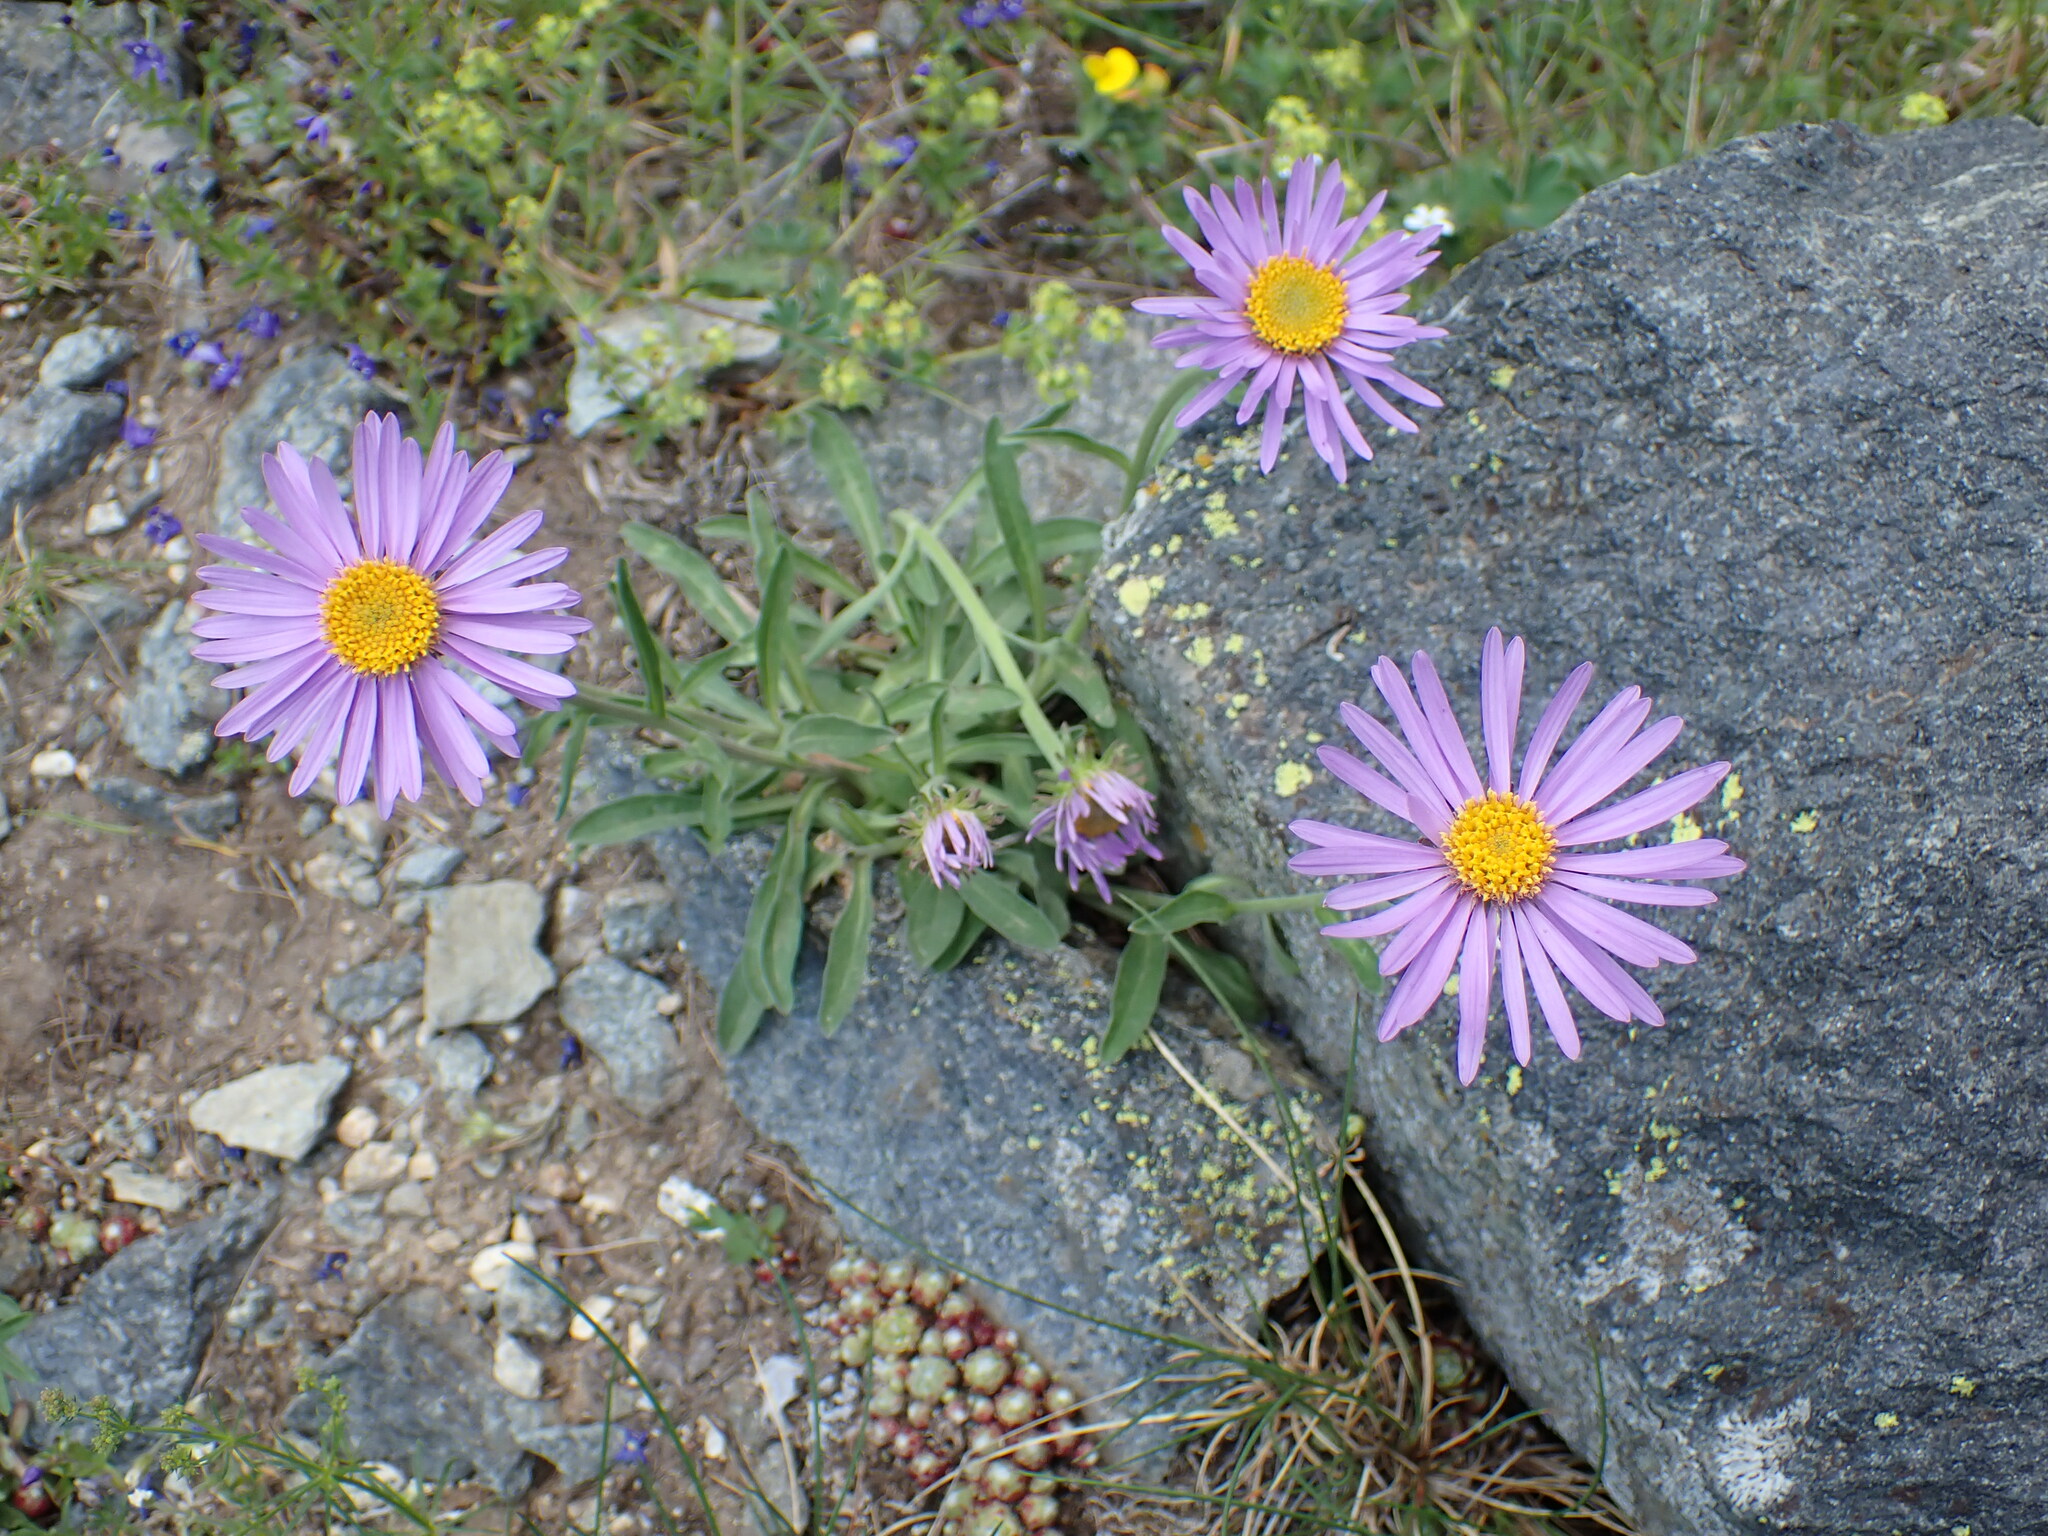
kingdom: Plantae
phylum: Tracheophyta
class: Magnoliopsida
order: Asterales
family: Asteraceae
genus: Aster
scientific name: Aster alpinus
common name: Alpine aster
